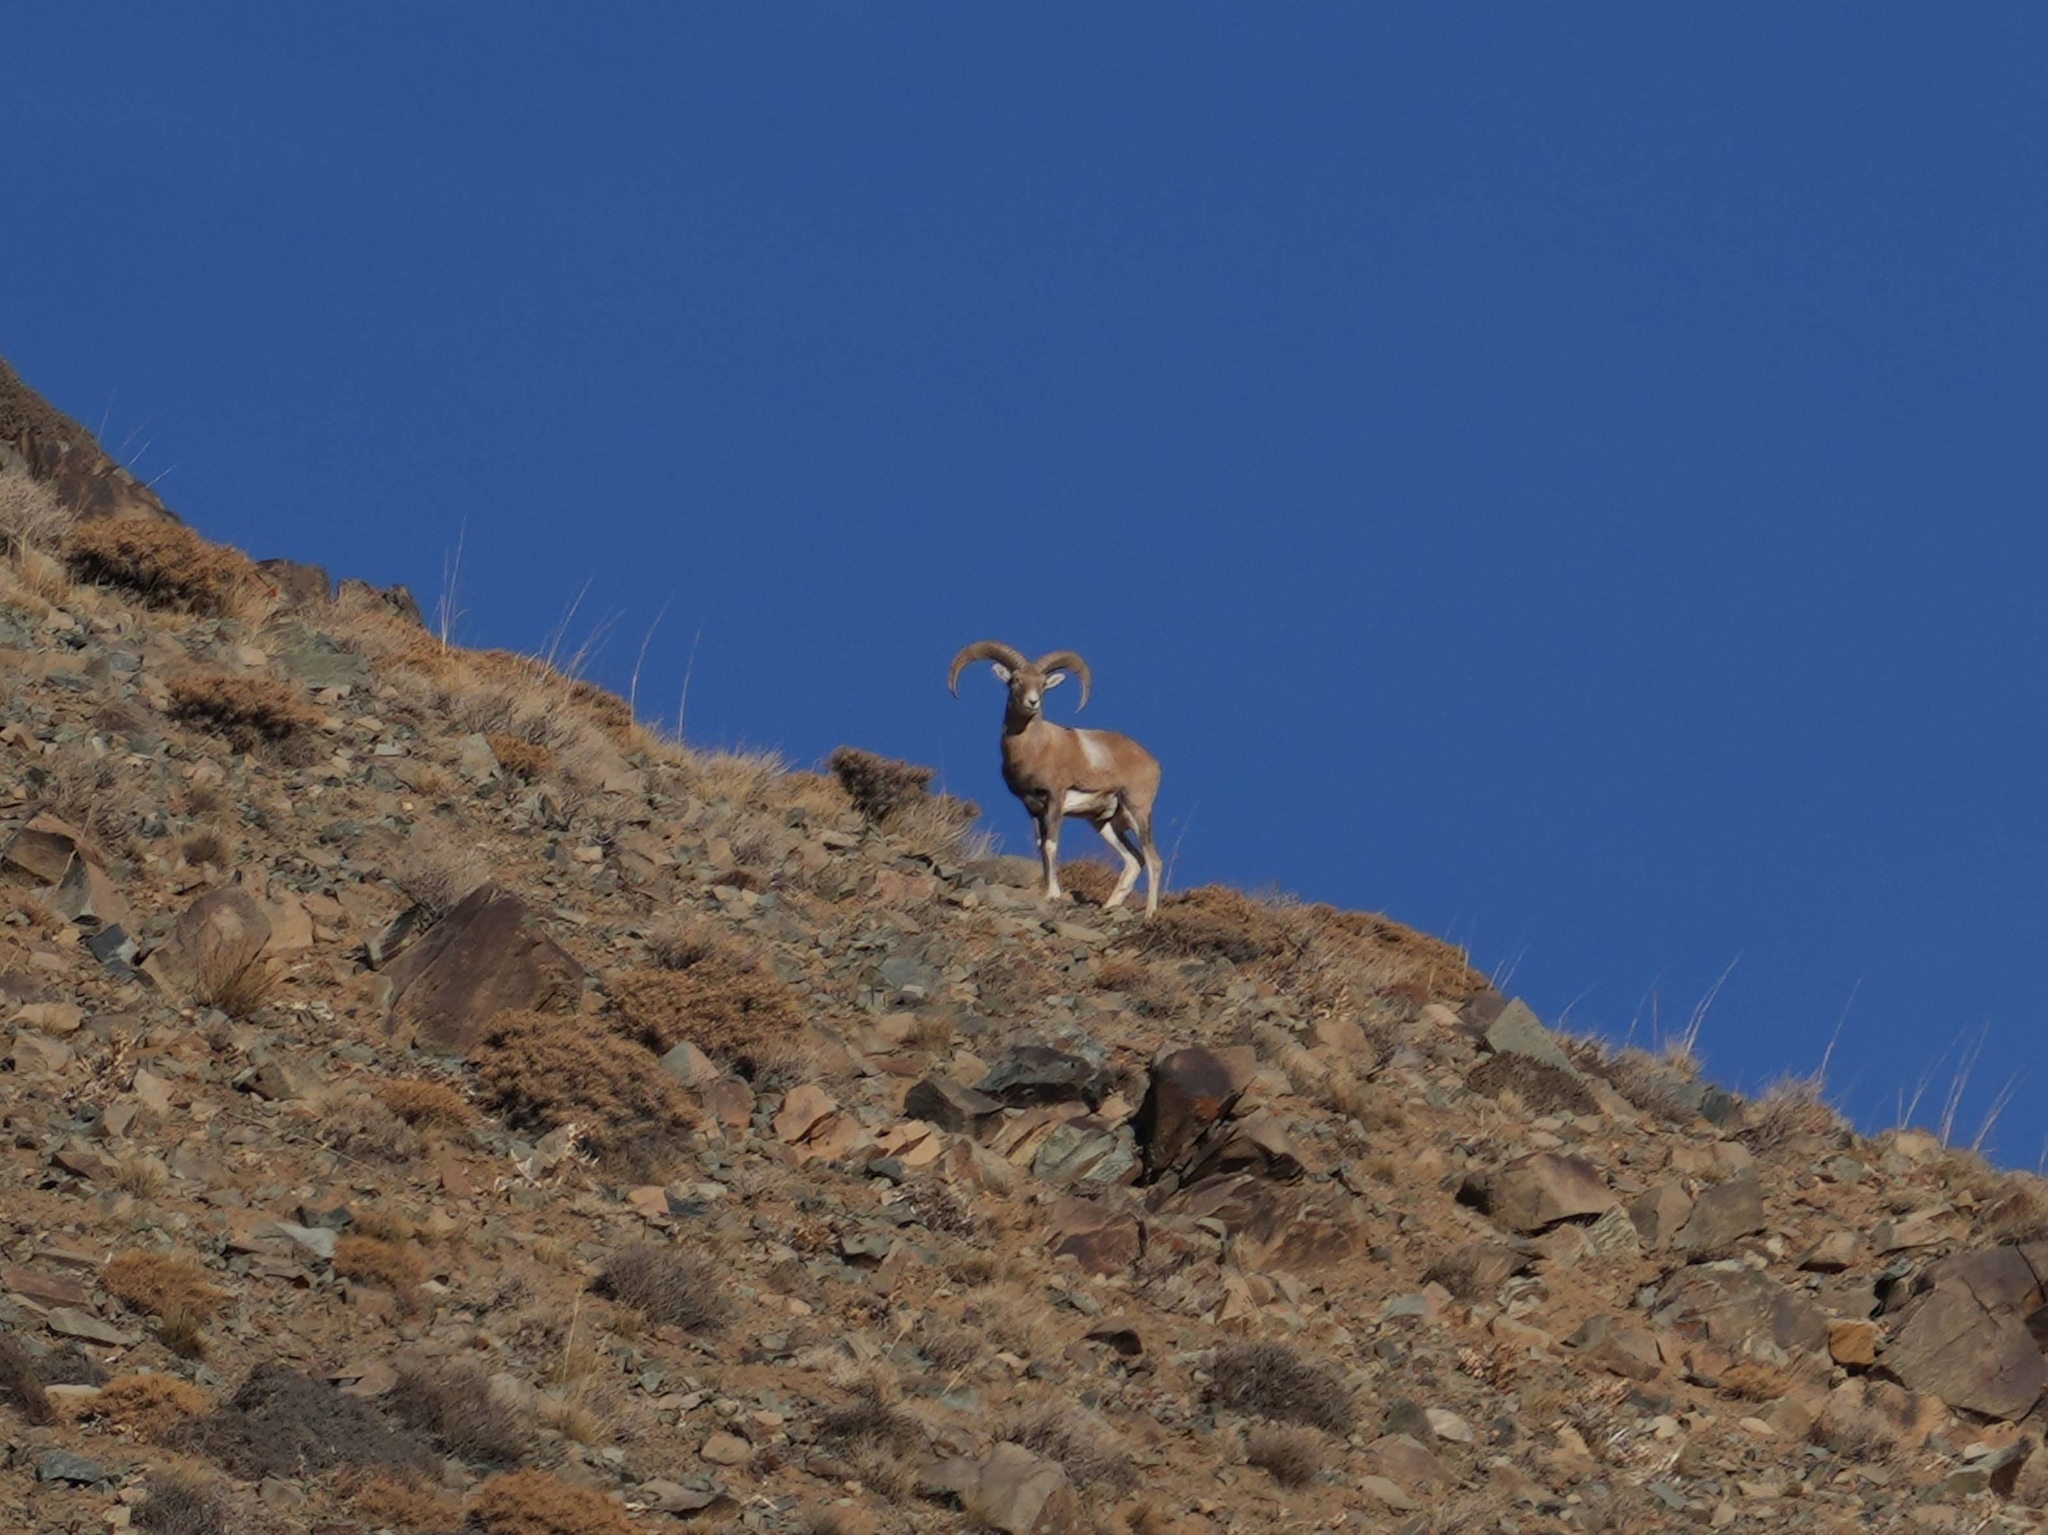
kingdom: Animalia
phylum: Chordata
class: Mammalia
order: Artiodactyla
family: Bovidae
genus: Ovis
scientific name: Ovis gmelini
